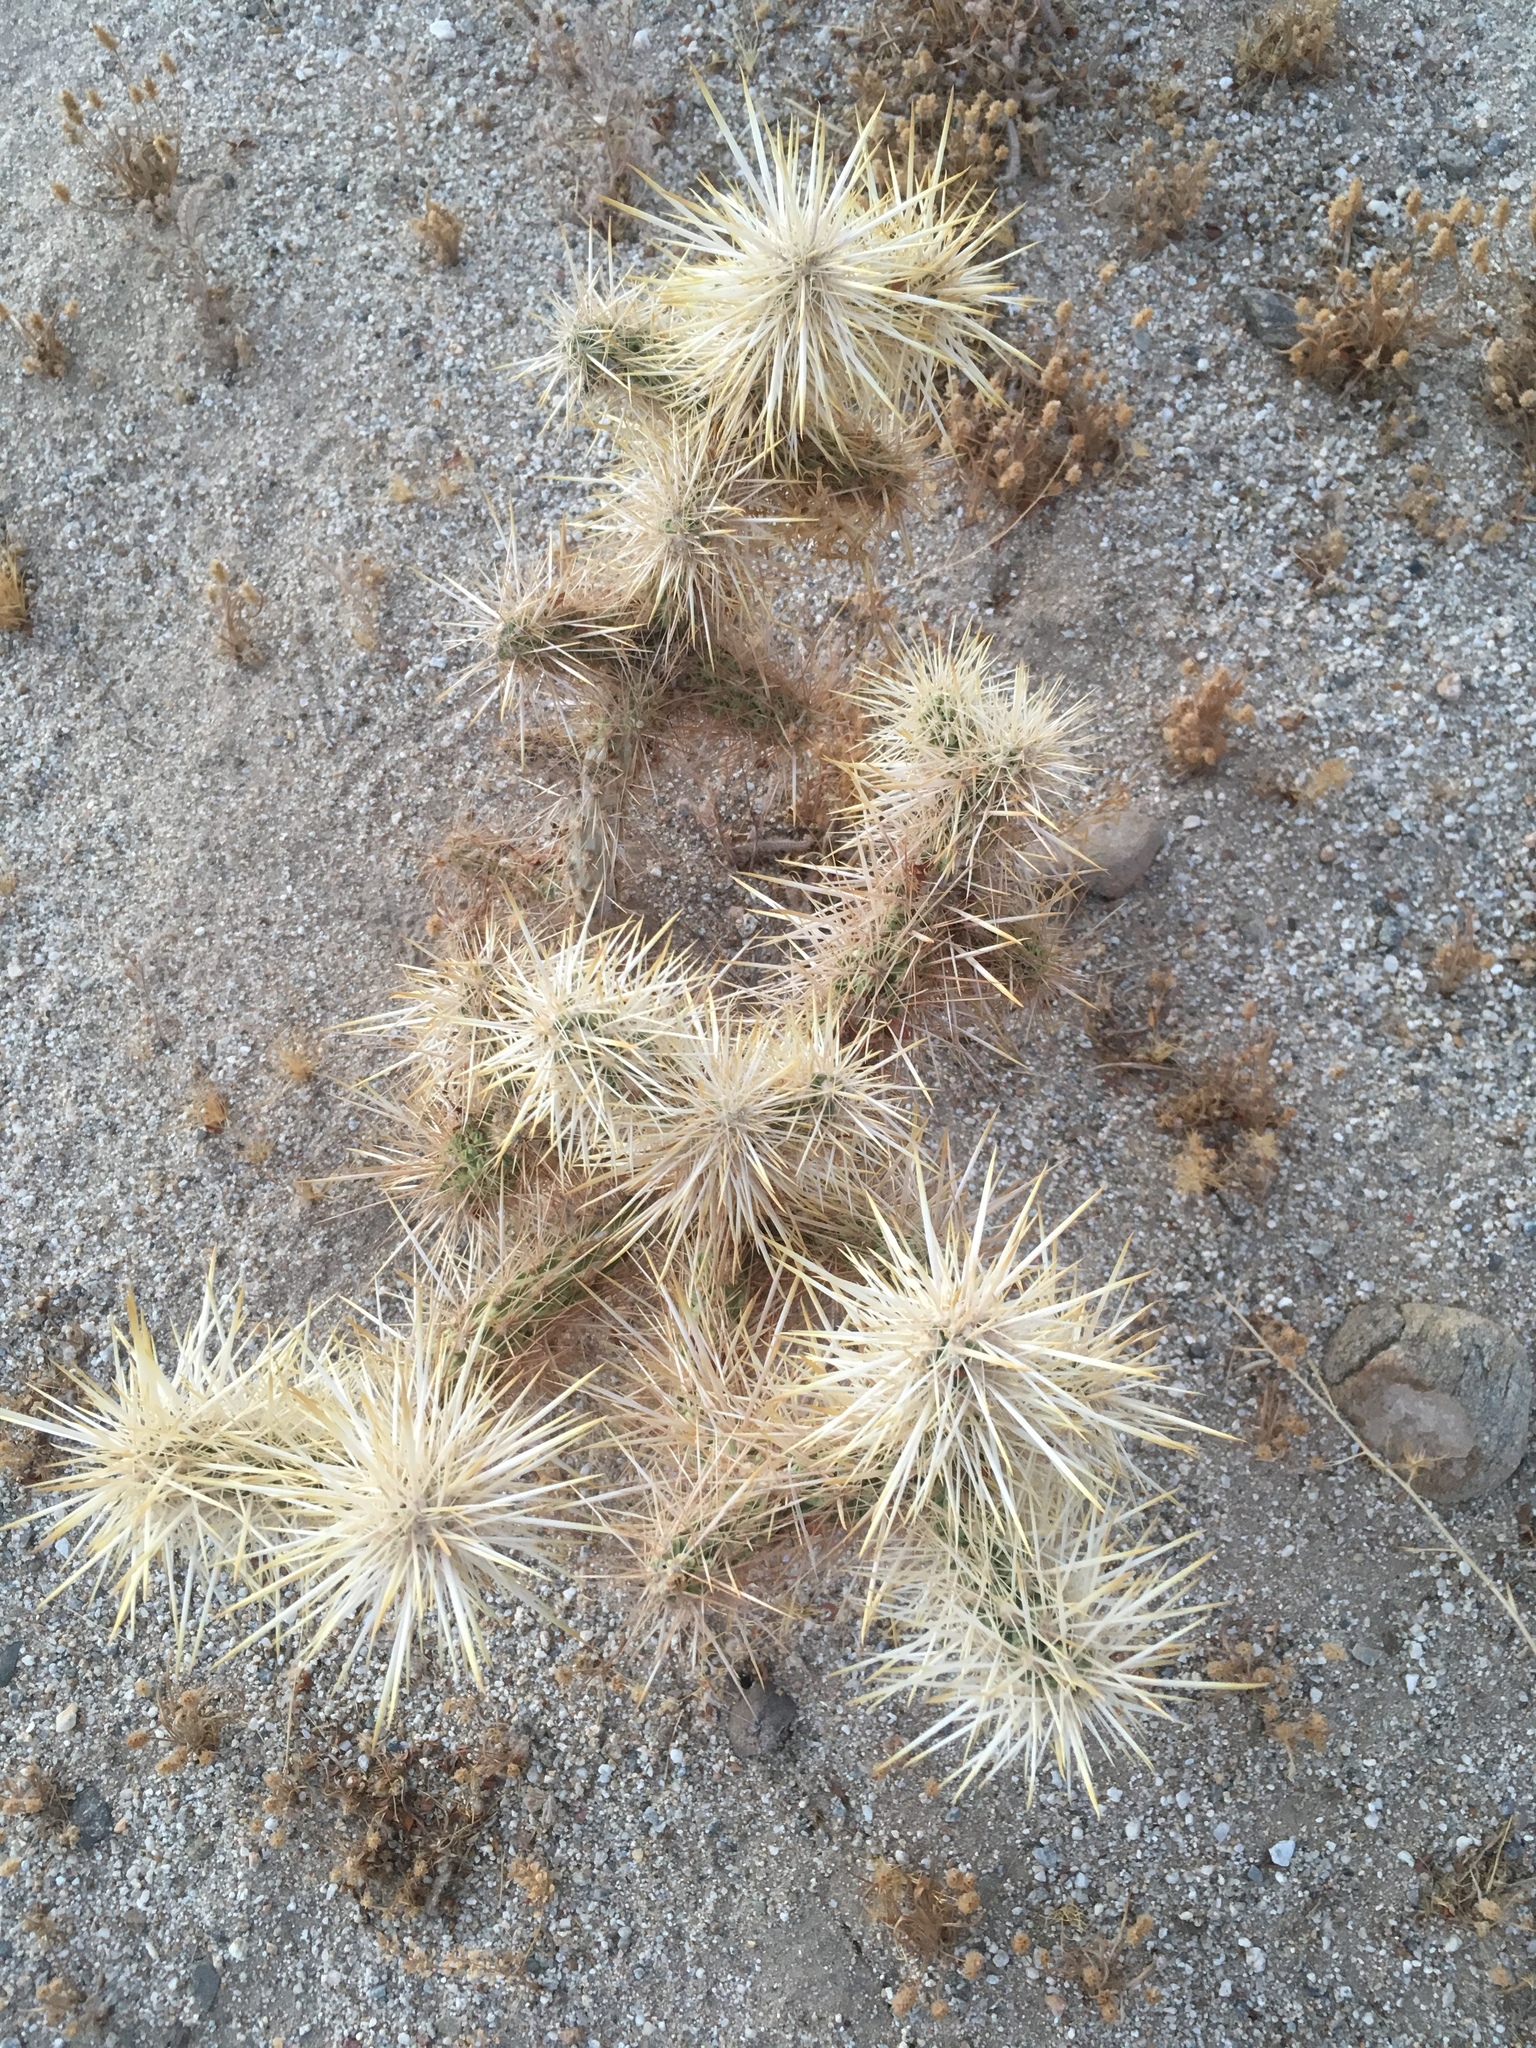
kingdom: Plantae
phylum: Tracheophyta
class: Magnoliopsida
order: Caryophyllales
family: Cactaceae
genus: Cylindropuntia
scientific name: Cylindropuntia echinocarpa
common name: Ground cholla
